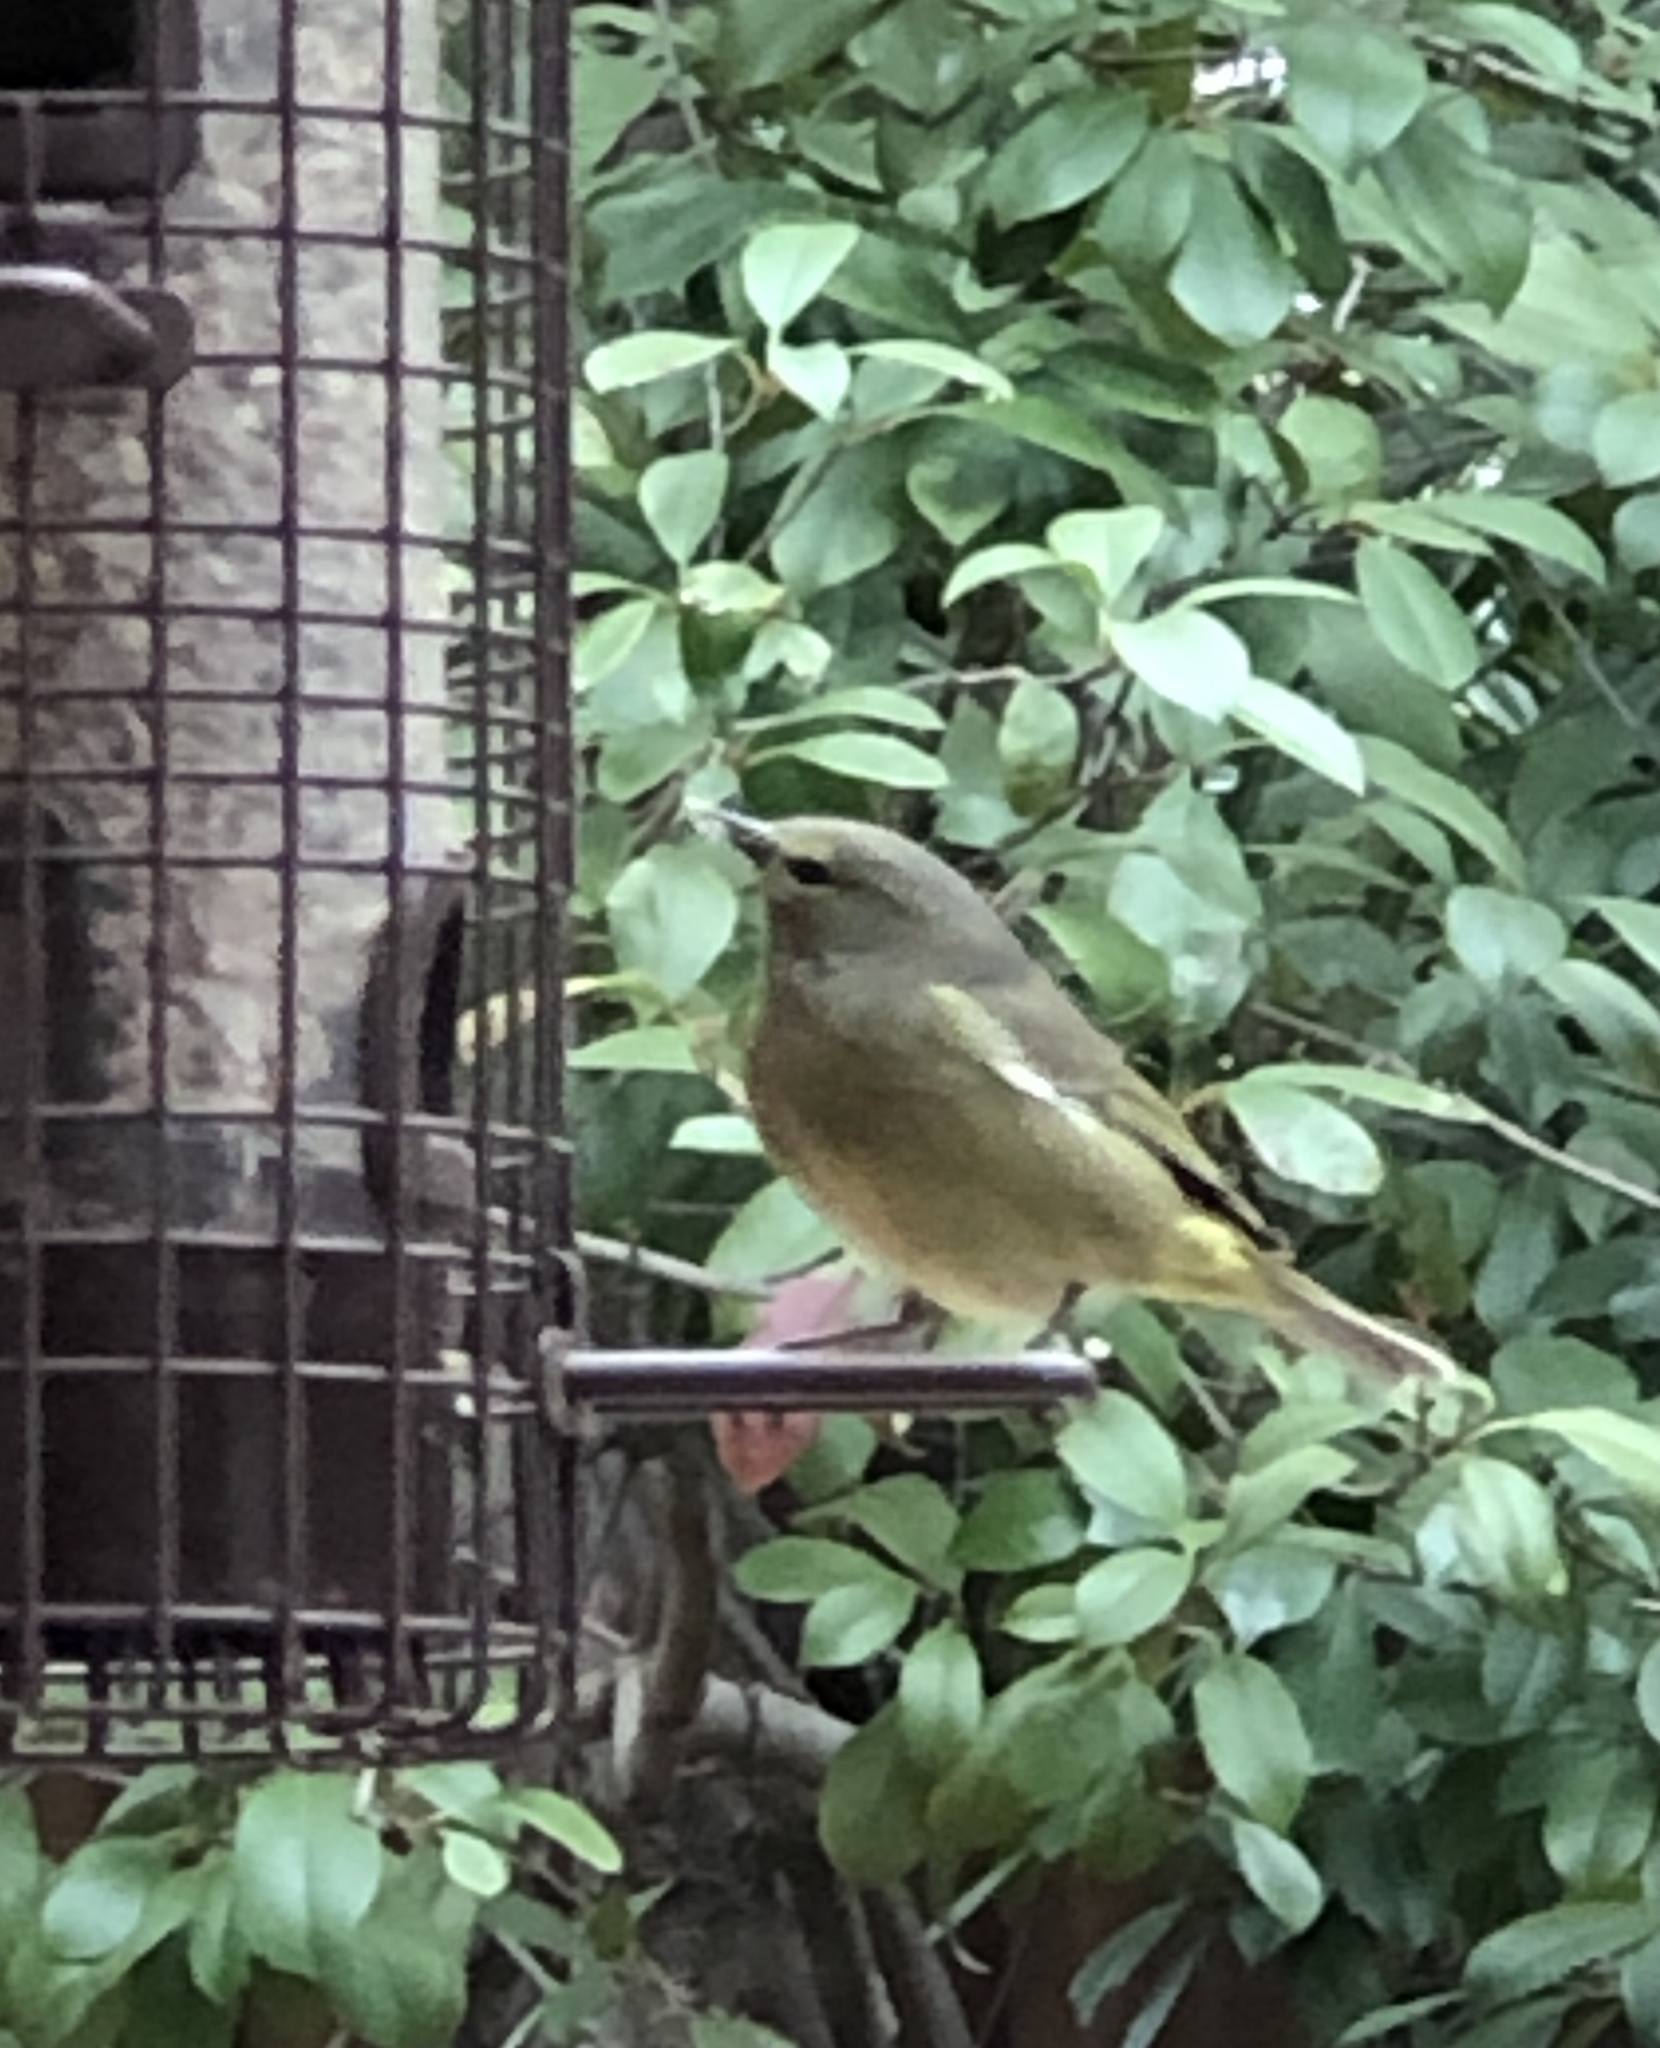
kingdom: Animalia
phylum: Chordata
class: Aves
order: Passeriformes
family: Parulidae
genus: Leiothlypis
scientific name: Leiothlypis celata
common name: Orange-crowned warbler
